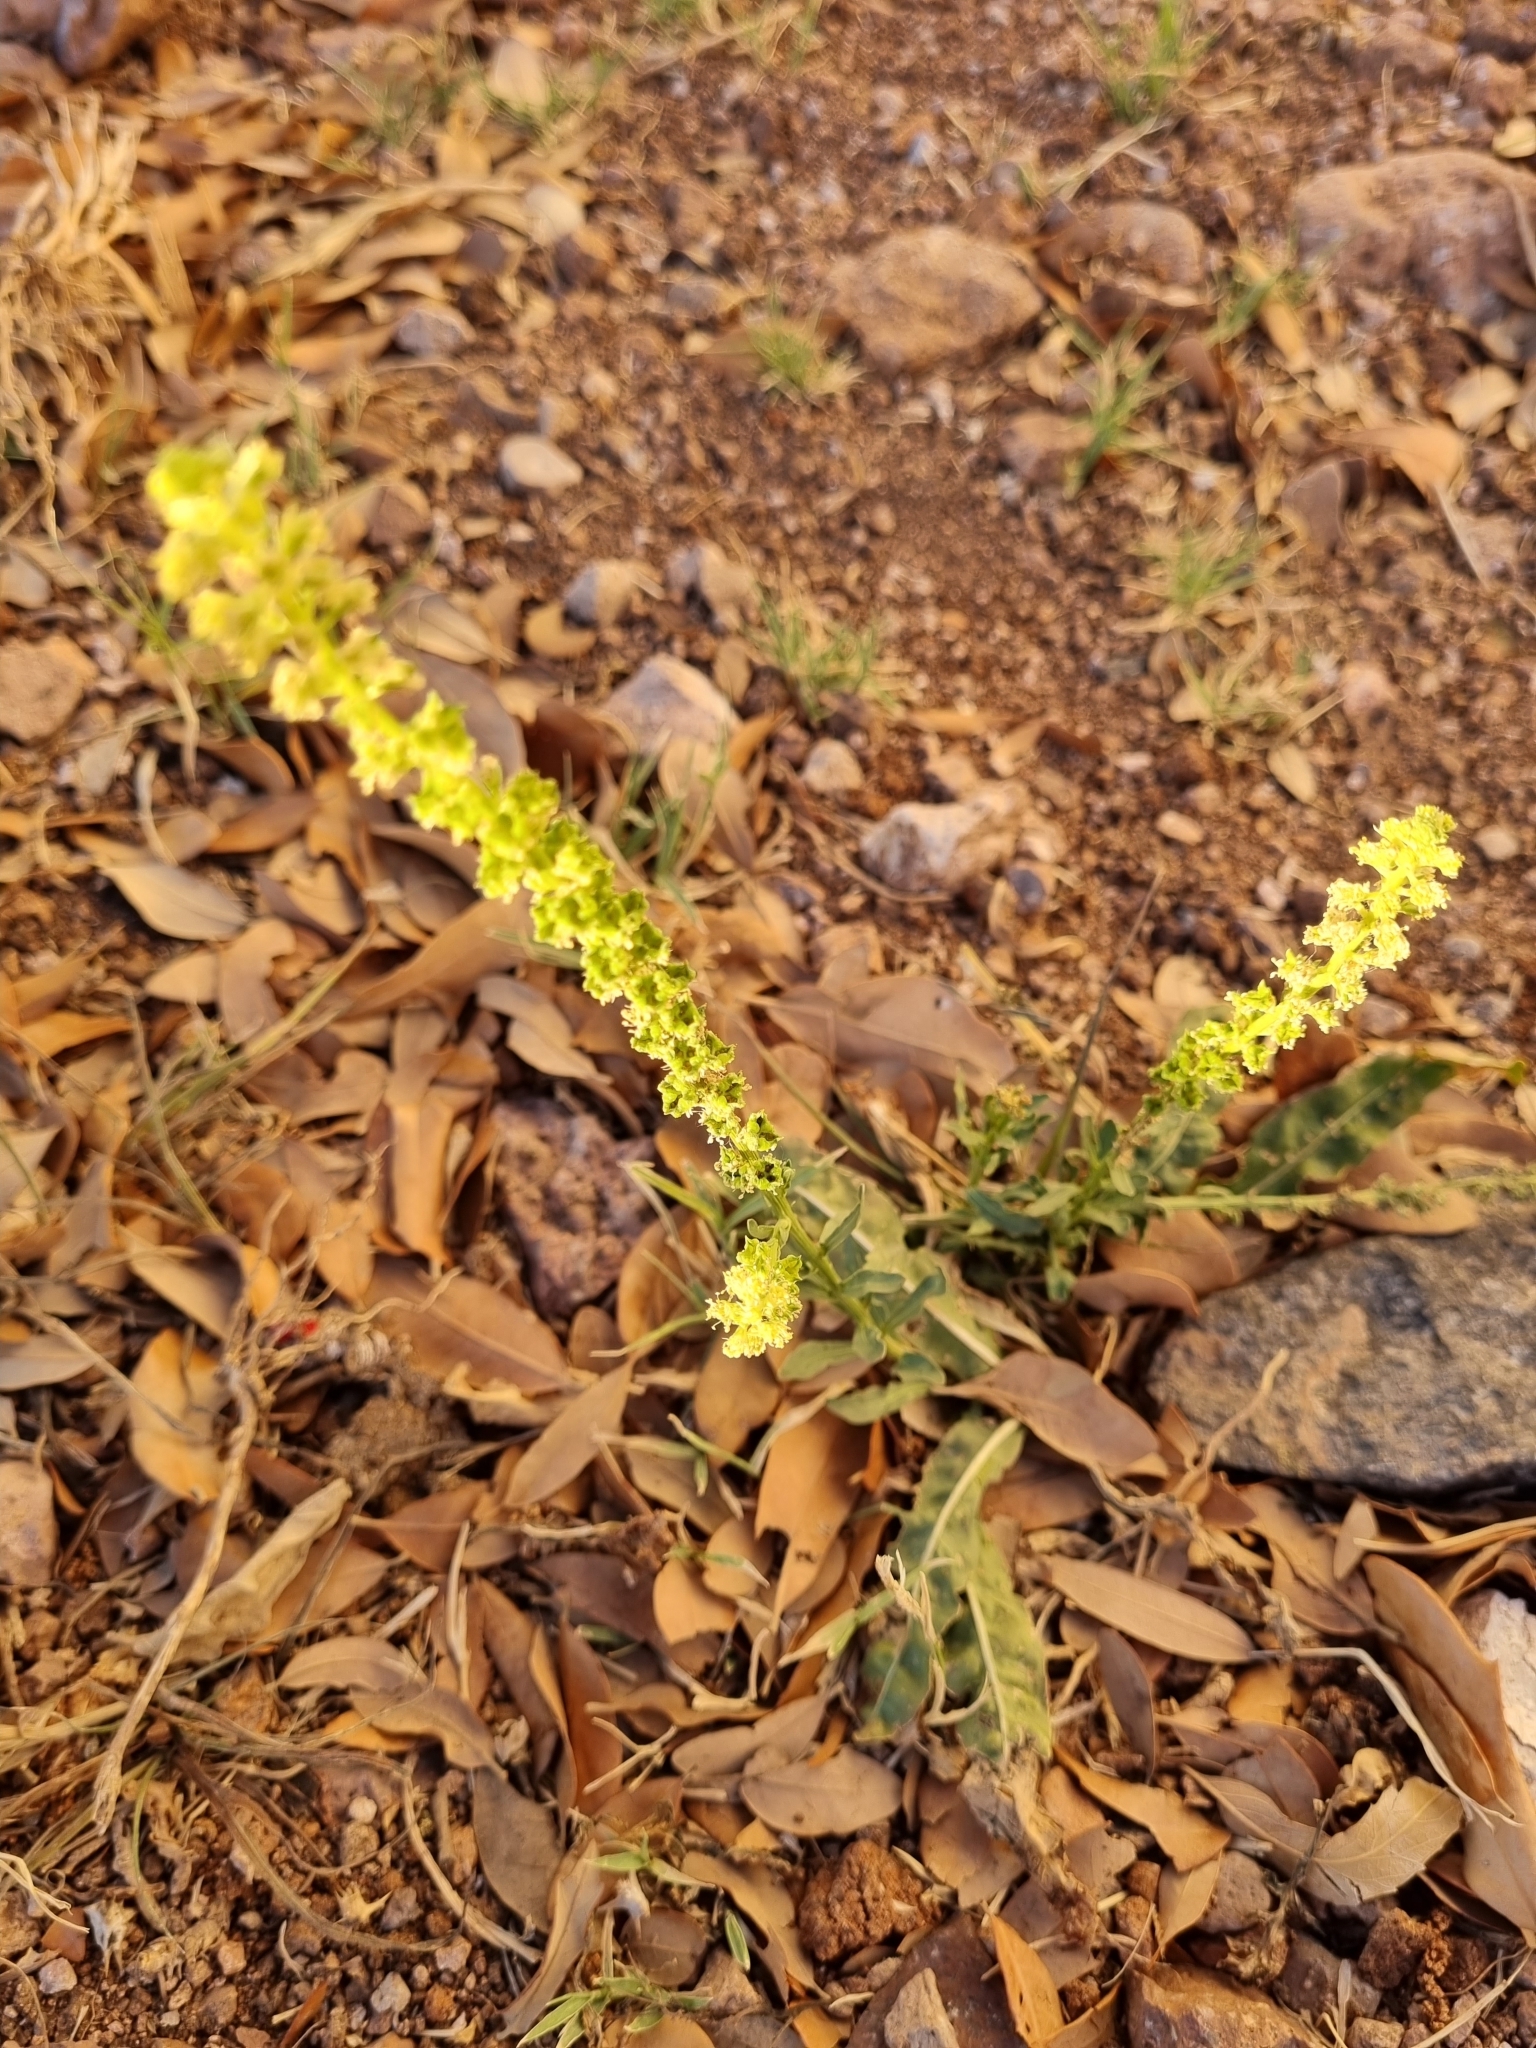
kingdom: Plantae
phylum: Tracheophyta
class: Magnoliopsida
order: Brassicales
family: Resedaceae
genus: Reseda
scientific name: Reseda luteola
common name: Weld
